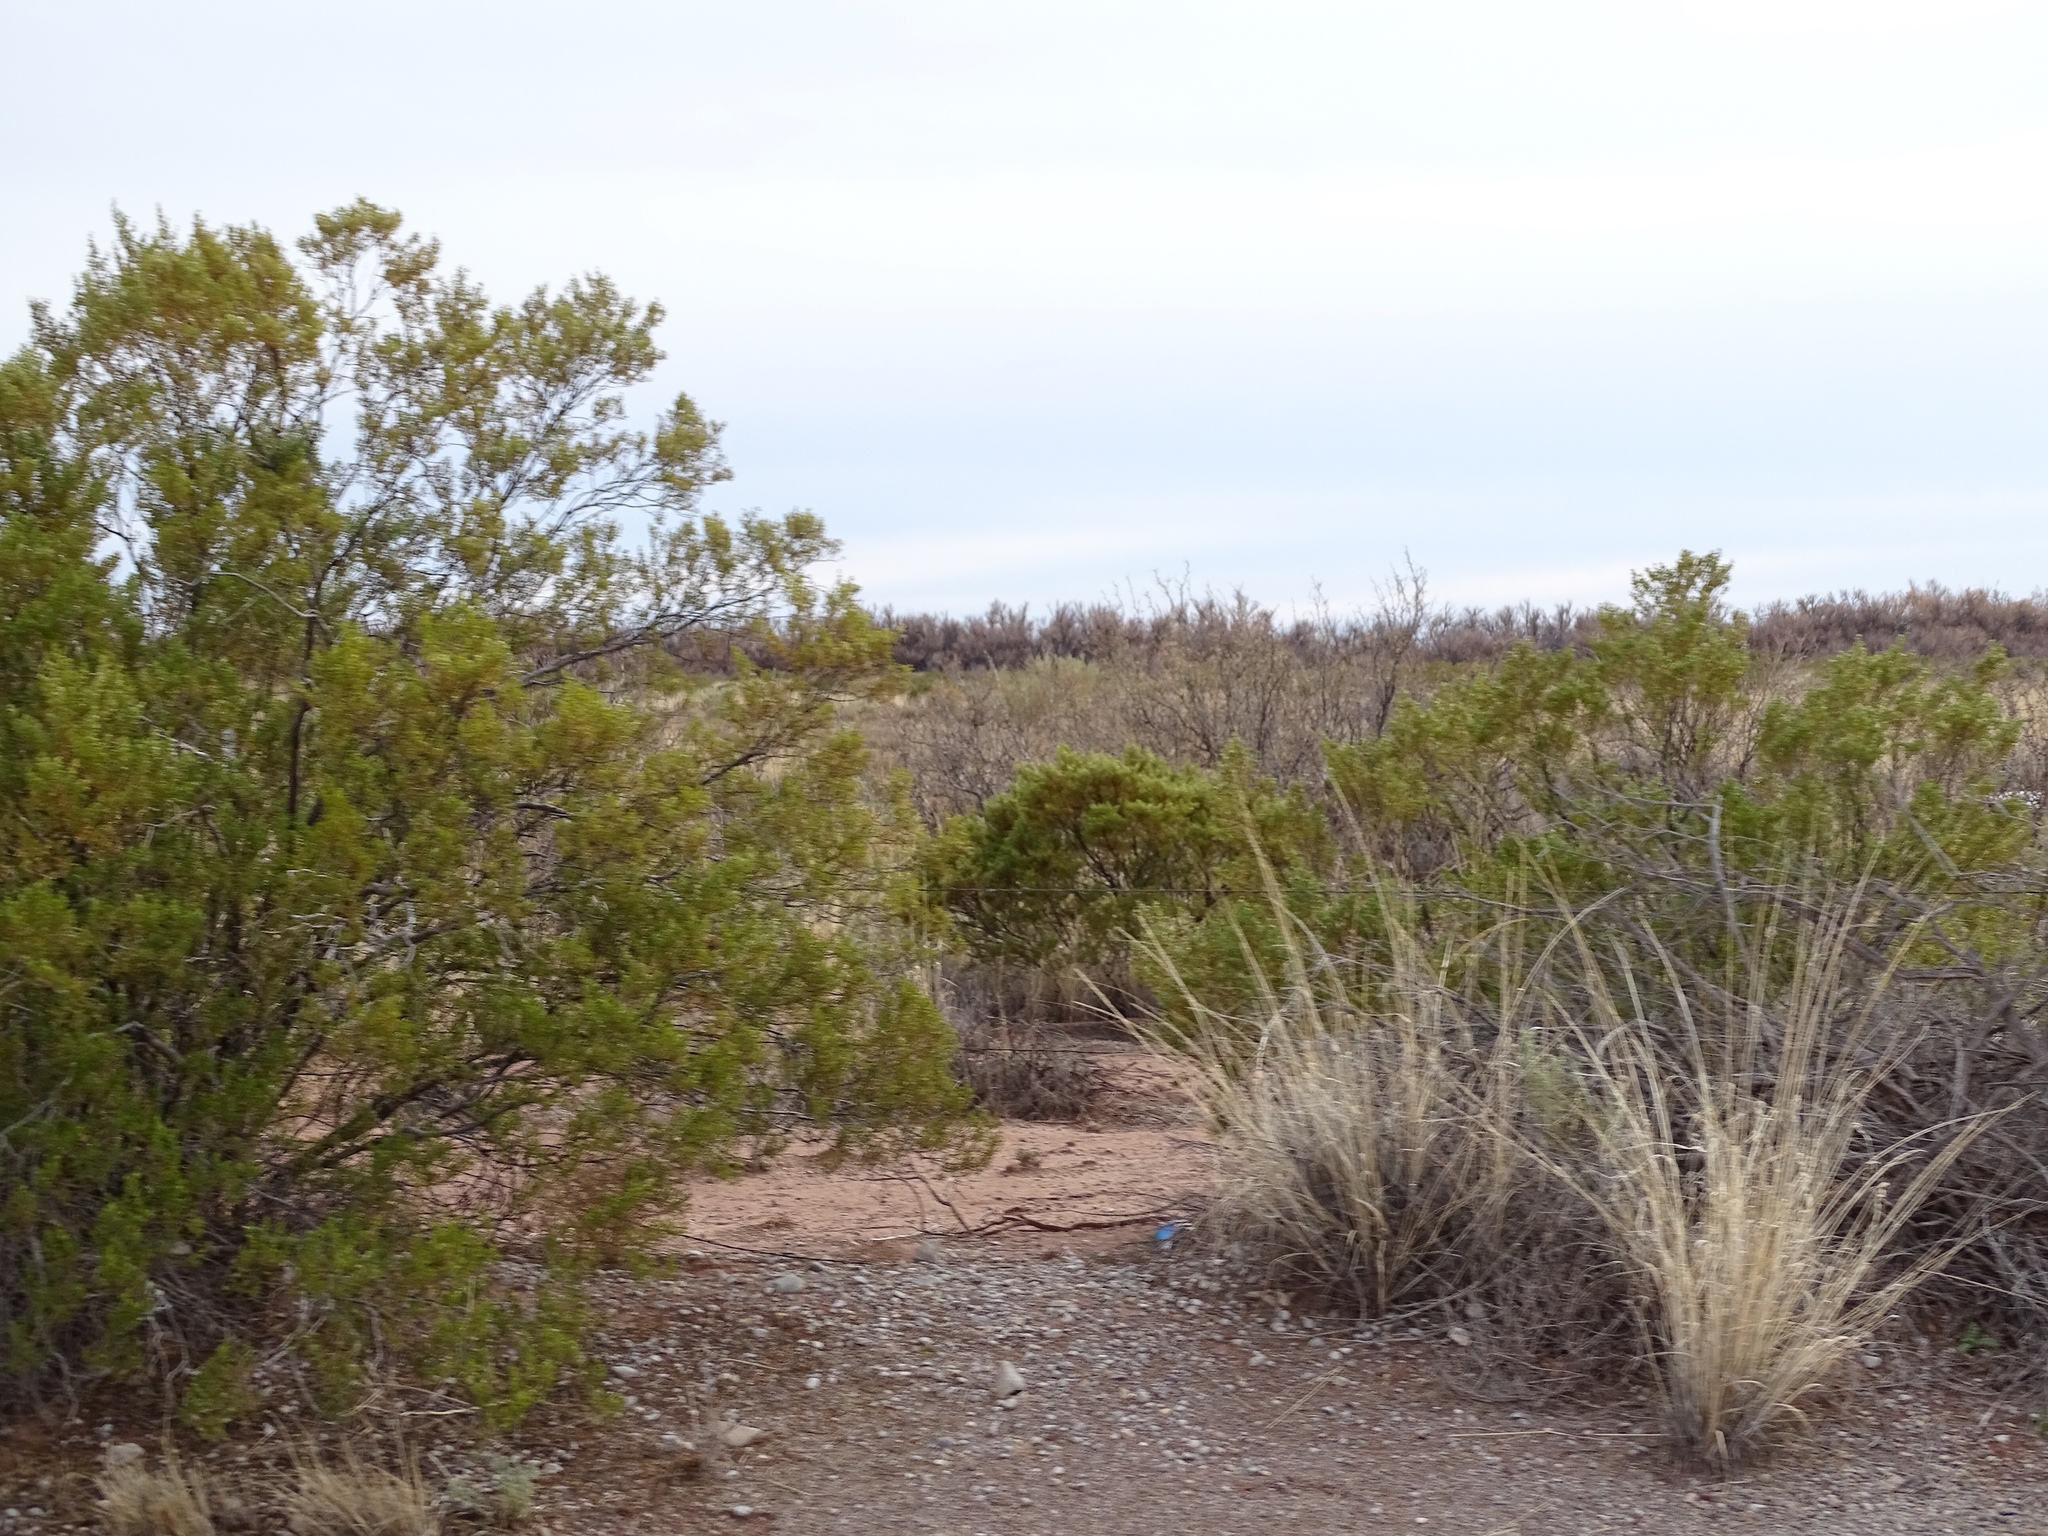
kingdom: Plantae
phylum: Tracheophyta
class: Magnoliopsida
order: Zygophyllales
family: Zygophyllaceae
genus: Larrea
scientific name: Larrea tridentata
